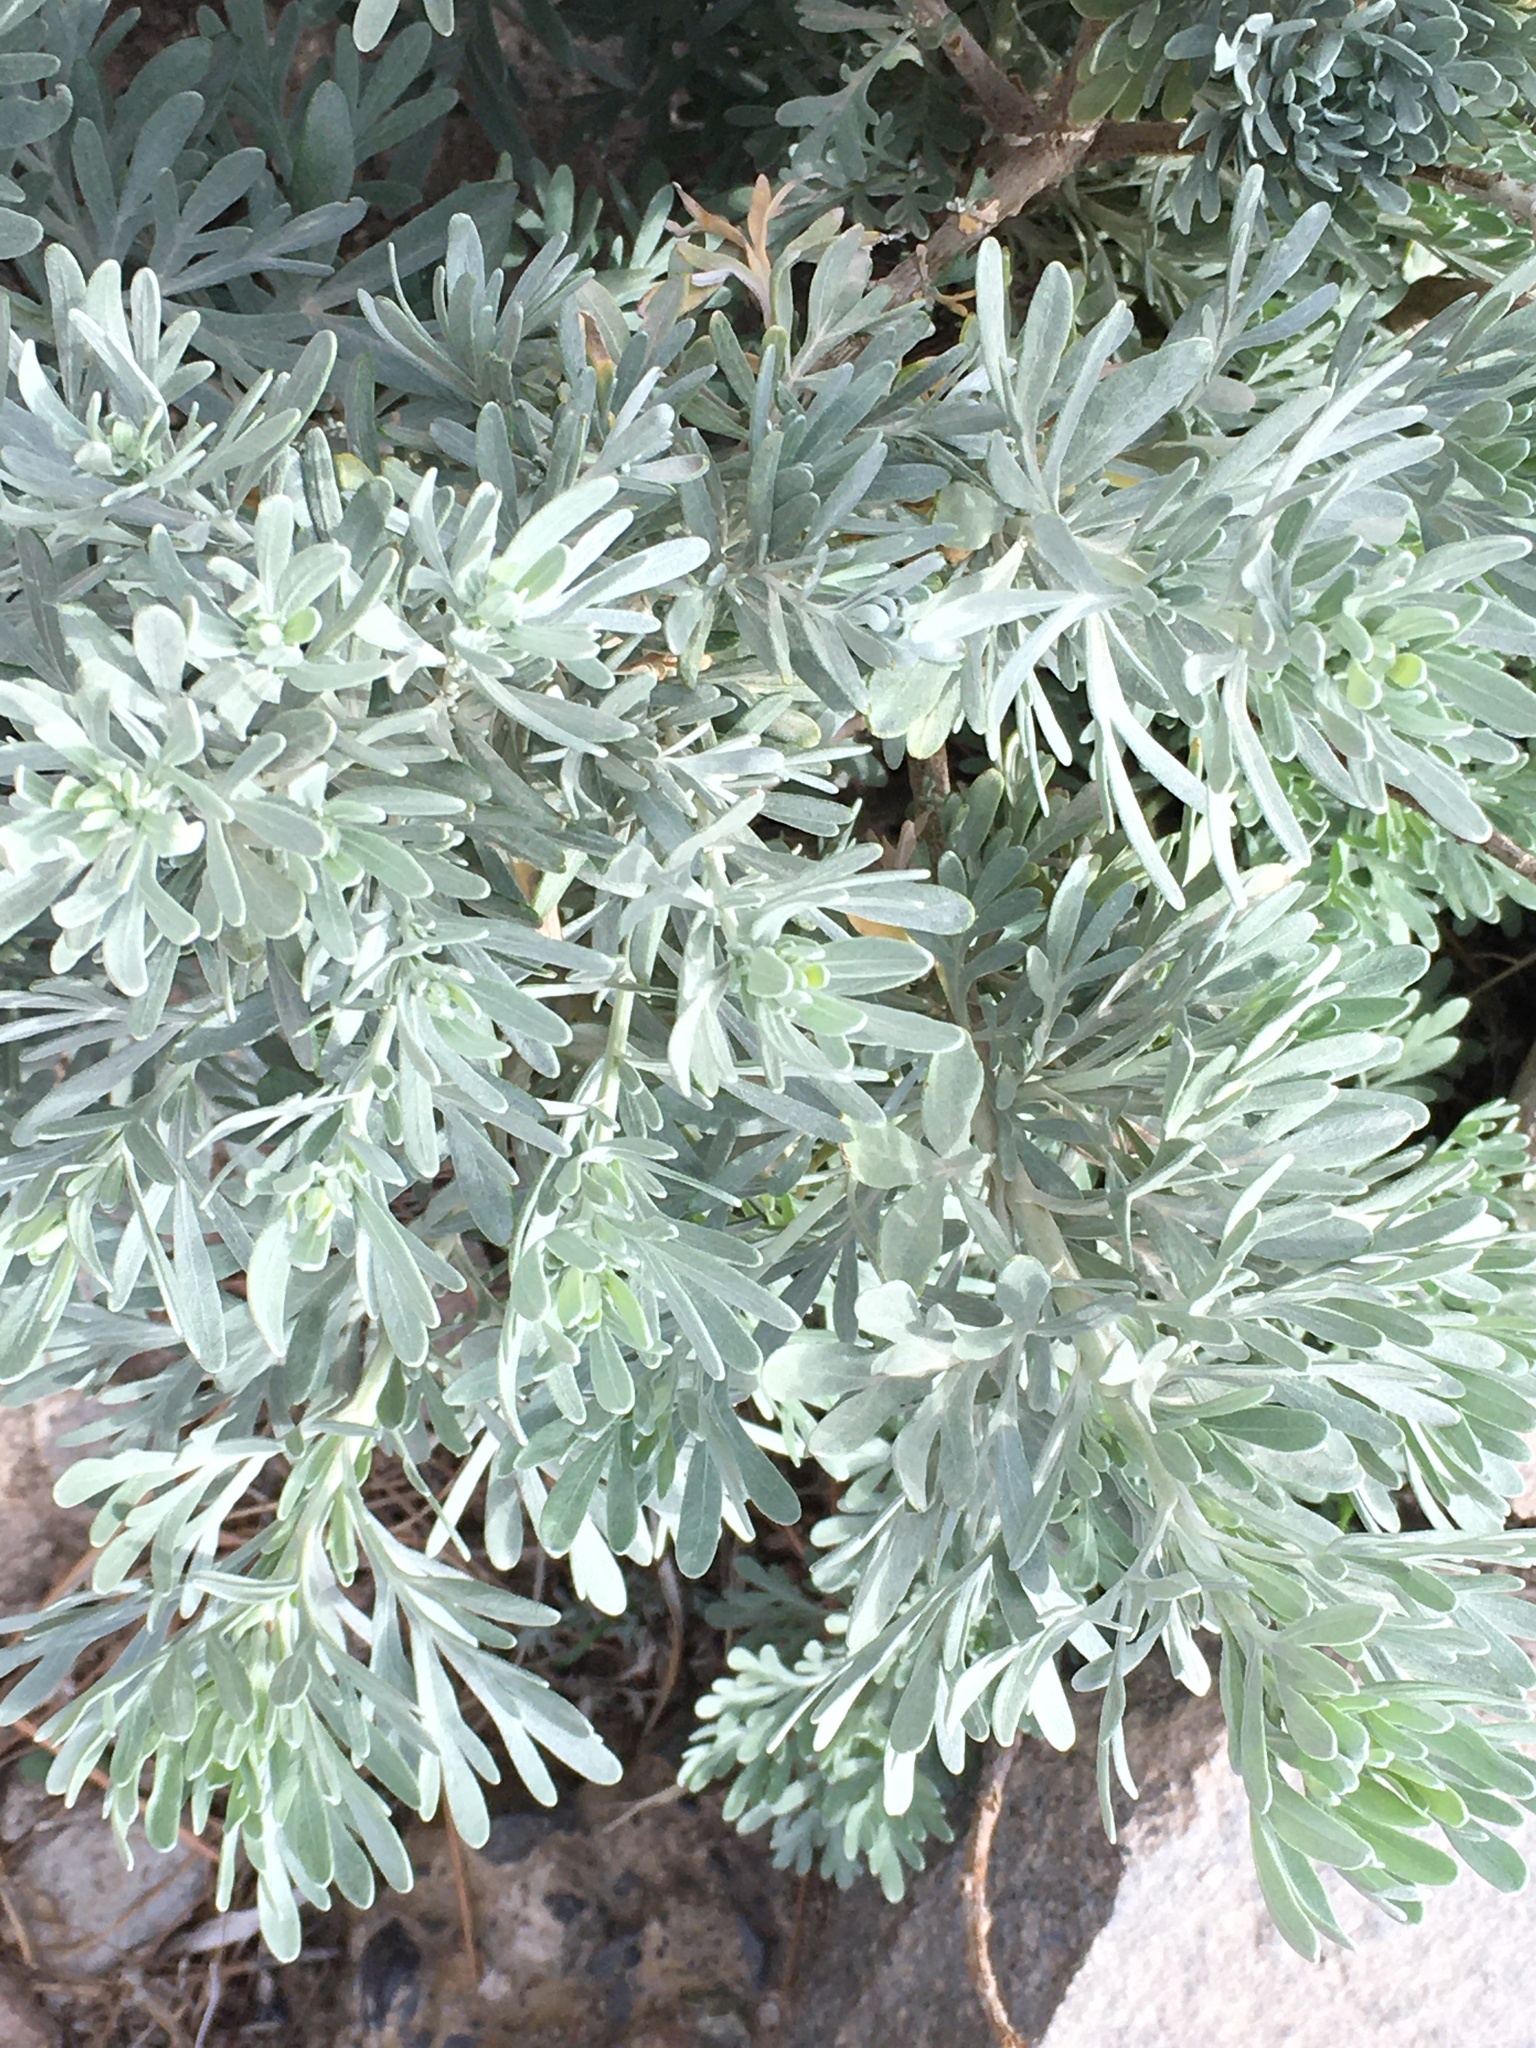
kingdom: Plantae
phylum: Tracheophyta
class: Magnoliopsida
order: Asterales
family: Asteraceae
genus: Artemisia
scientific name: Artemisia thuscula
